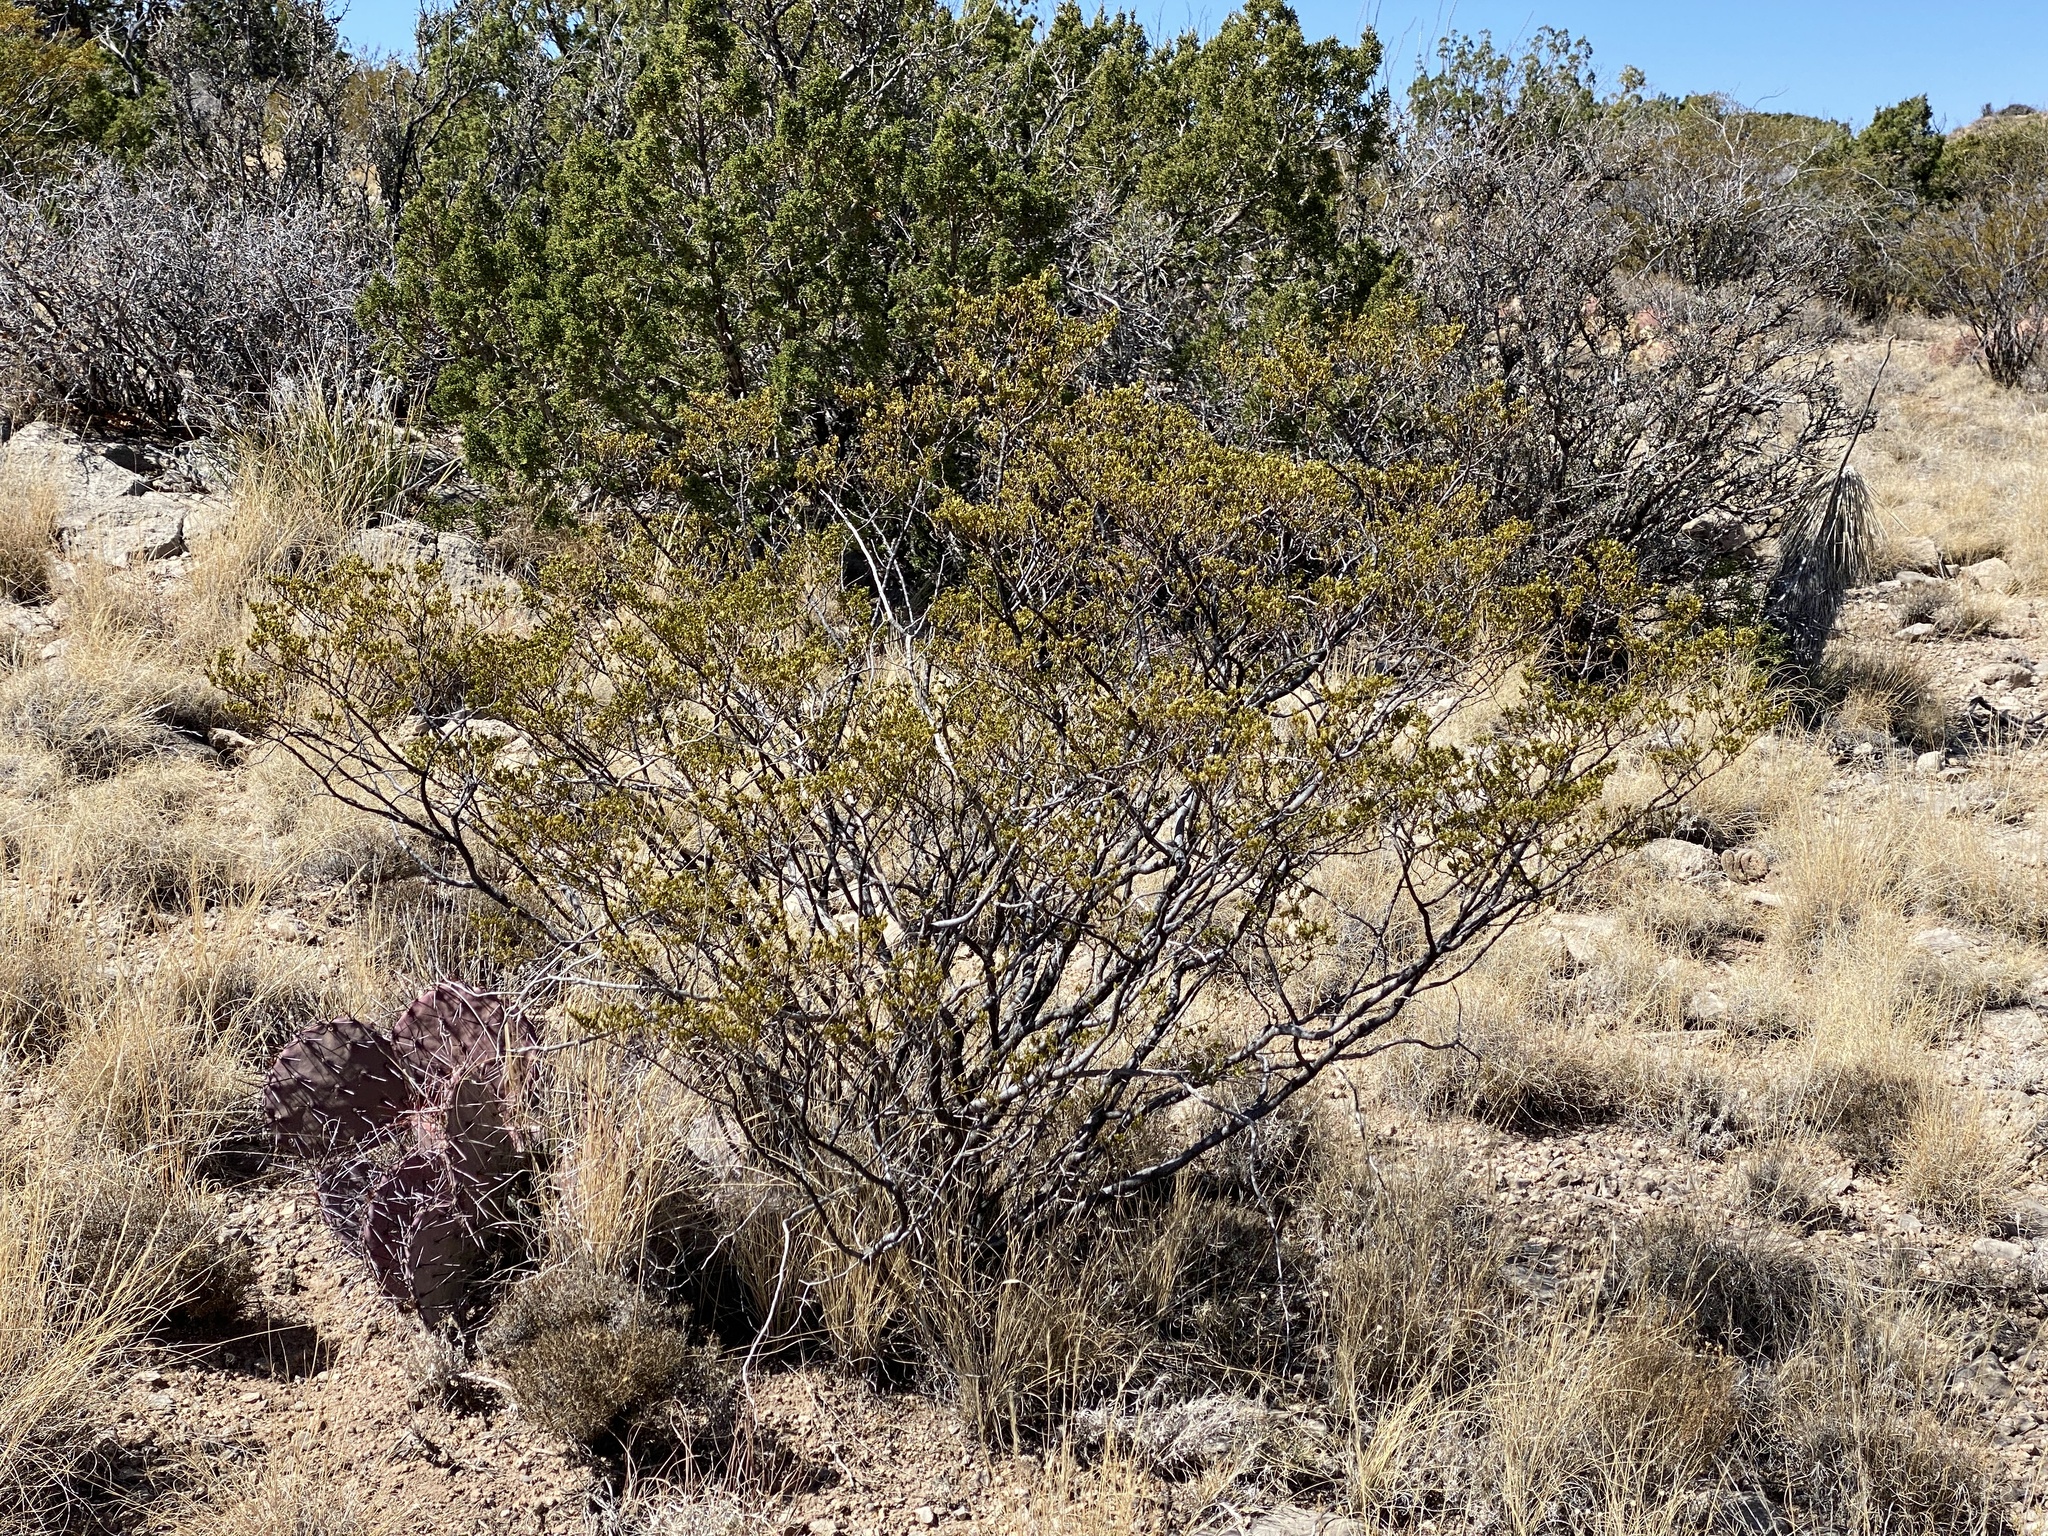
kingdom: Plantae
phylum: Tracheophyta
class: Magnoliopsida
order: Zygophyllales
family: Zygophyllaceae
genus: Larrea
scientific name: Larrea tridentata
